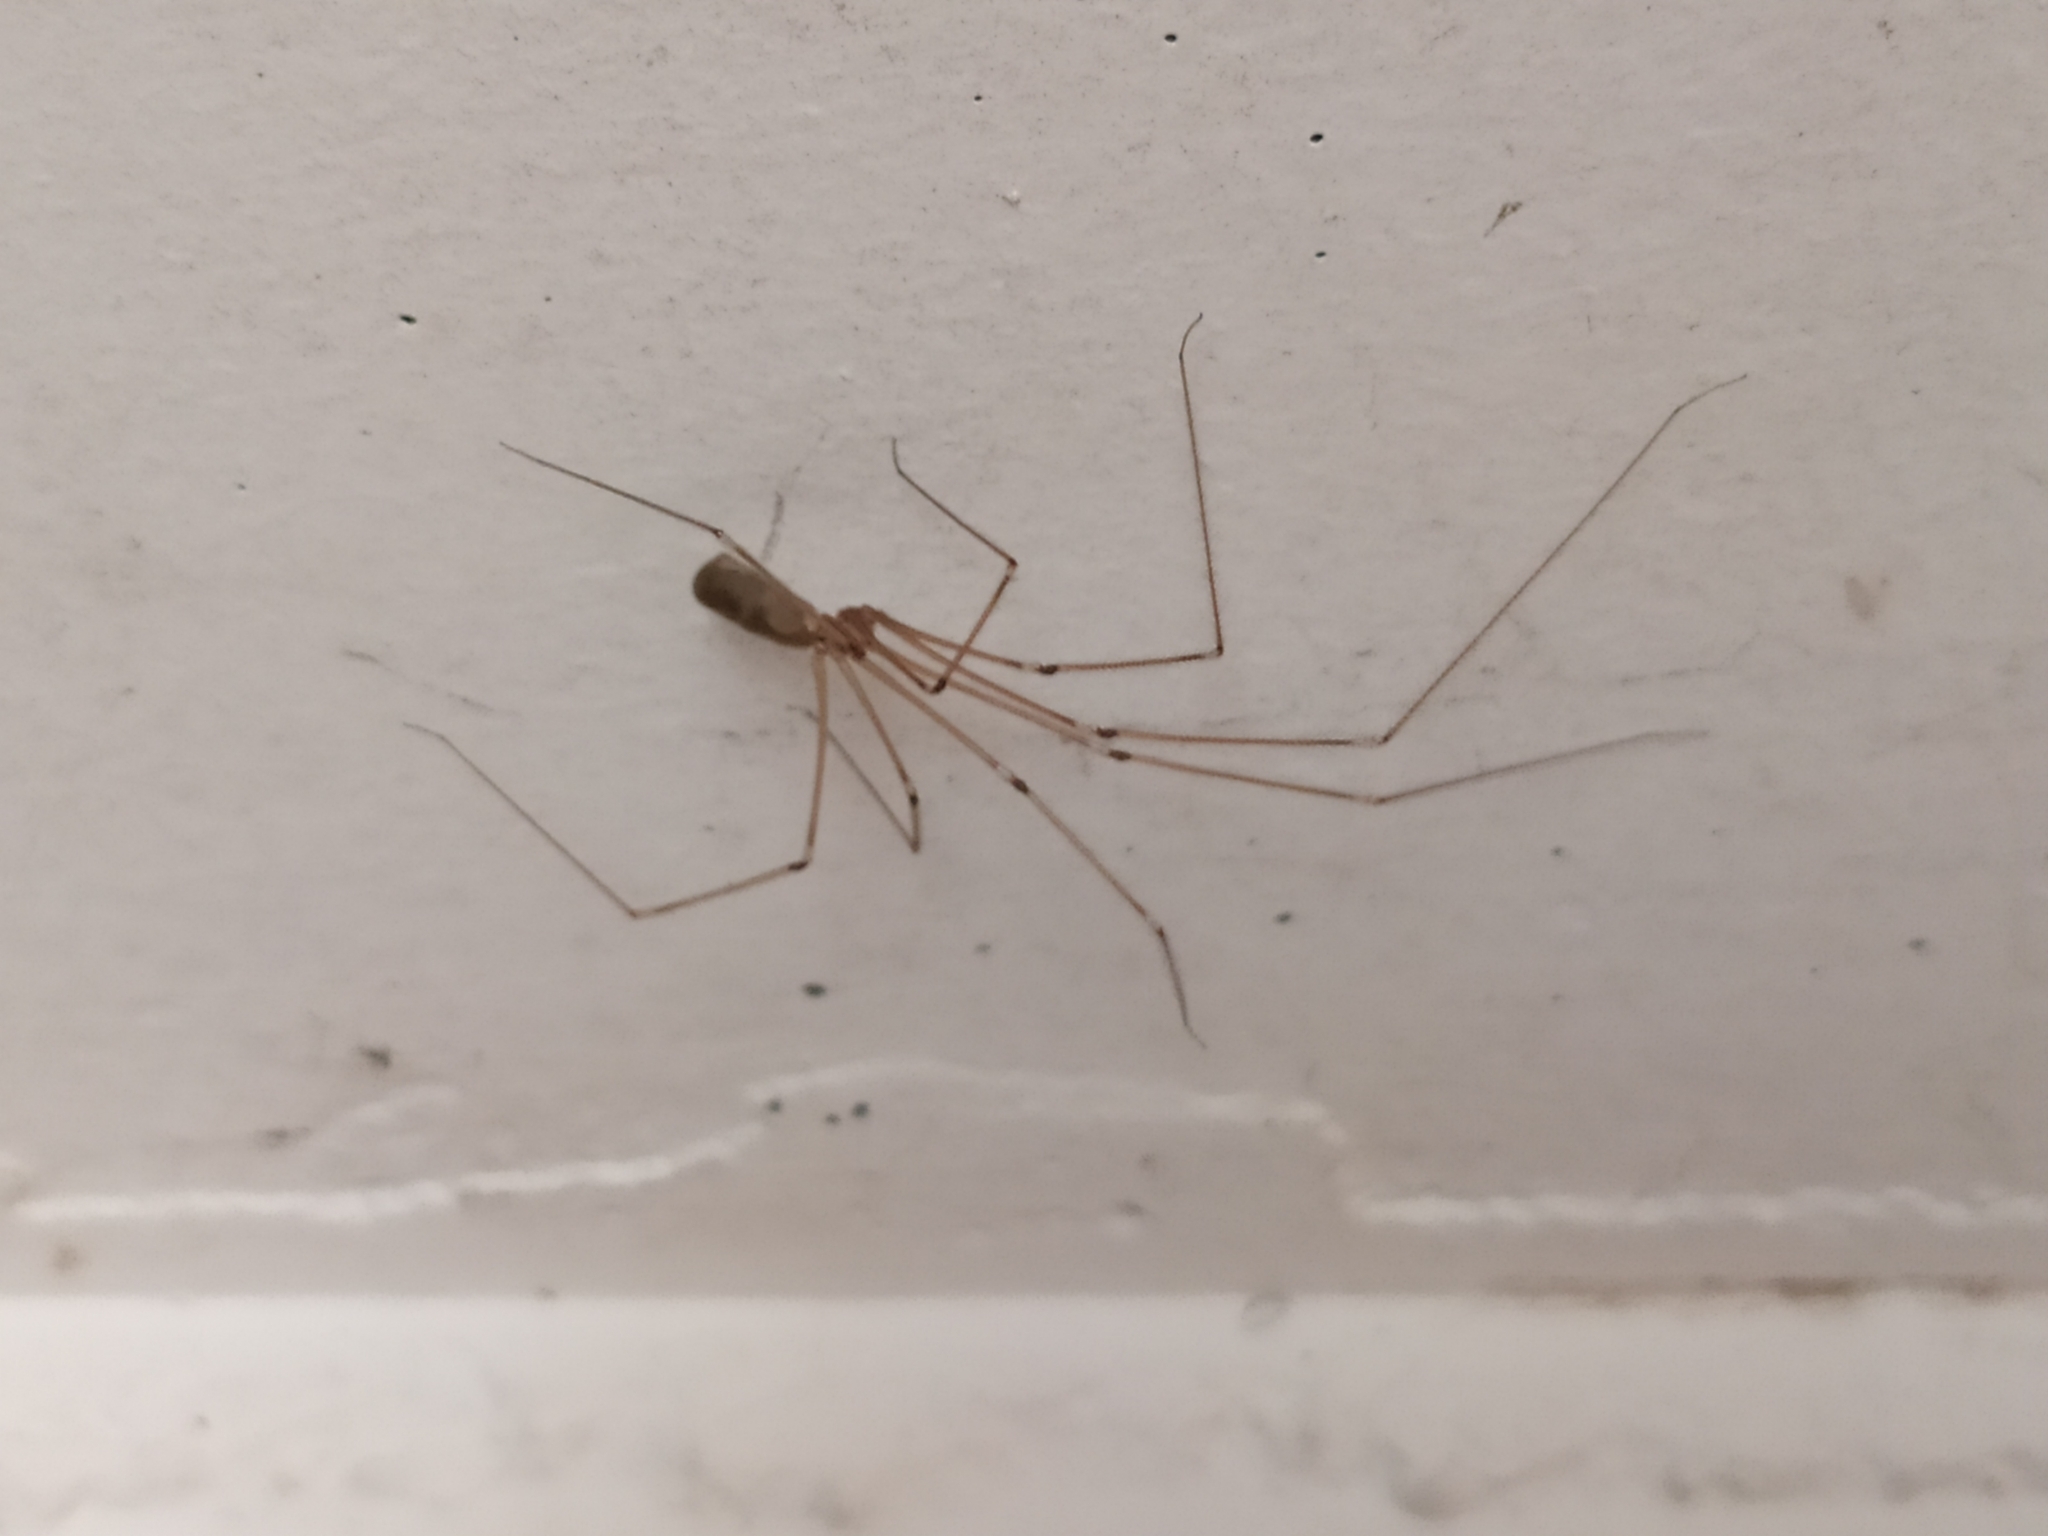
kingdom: Animalia
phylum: Arthropoda
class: Arachnida
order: Araneae
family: Pholcidae
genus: Pholcus
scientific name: Pholcus phalangioides
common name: Longbodied cellar spider
